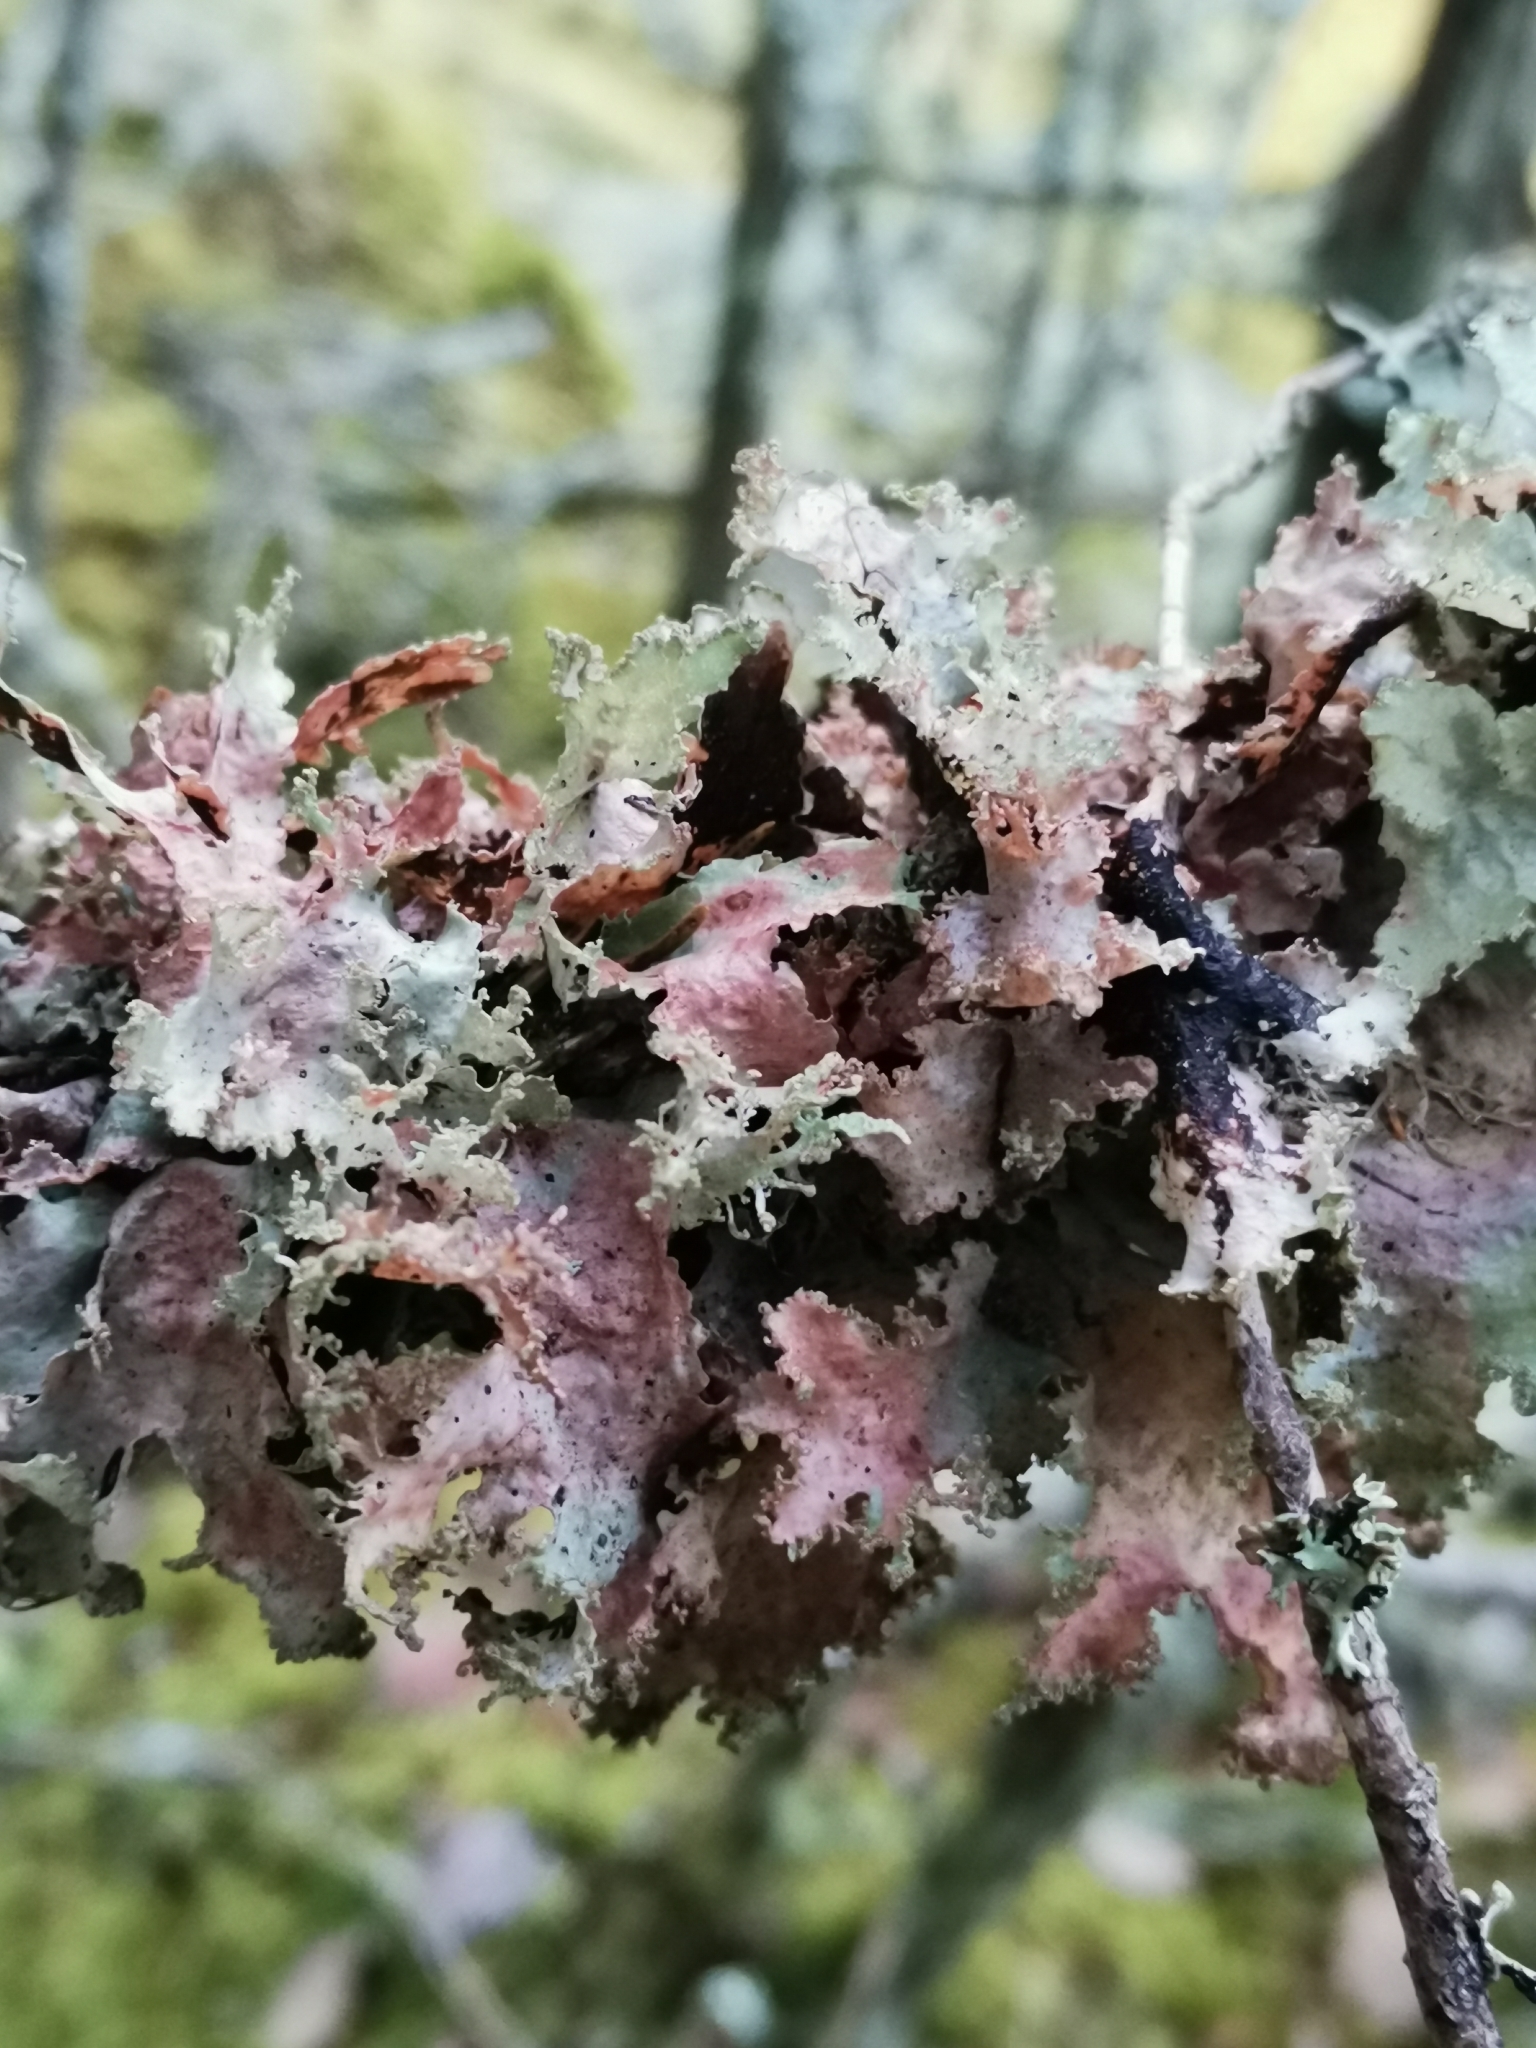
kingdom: Fungi
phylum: Ascomycota
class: Lecanoromycetes
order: Lecanorales
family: Parmeliaceae
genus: Platismatia
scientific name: Platismatia glauca
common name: Varied rag lichen
